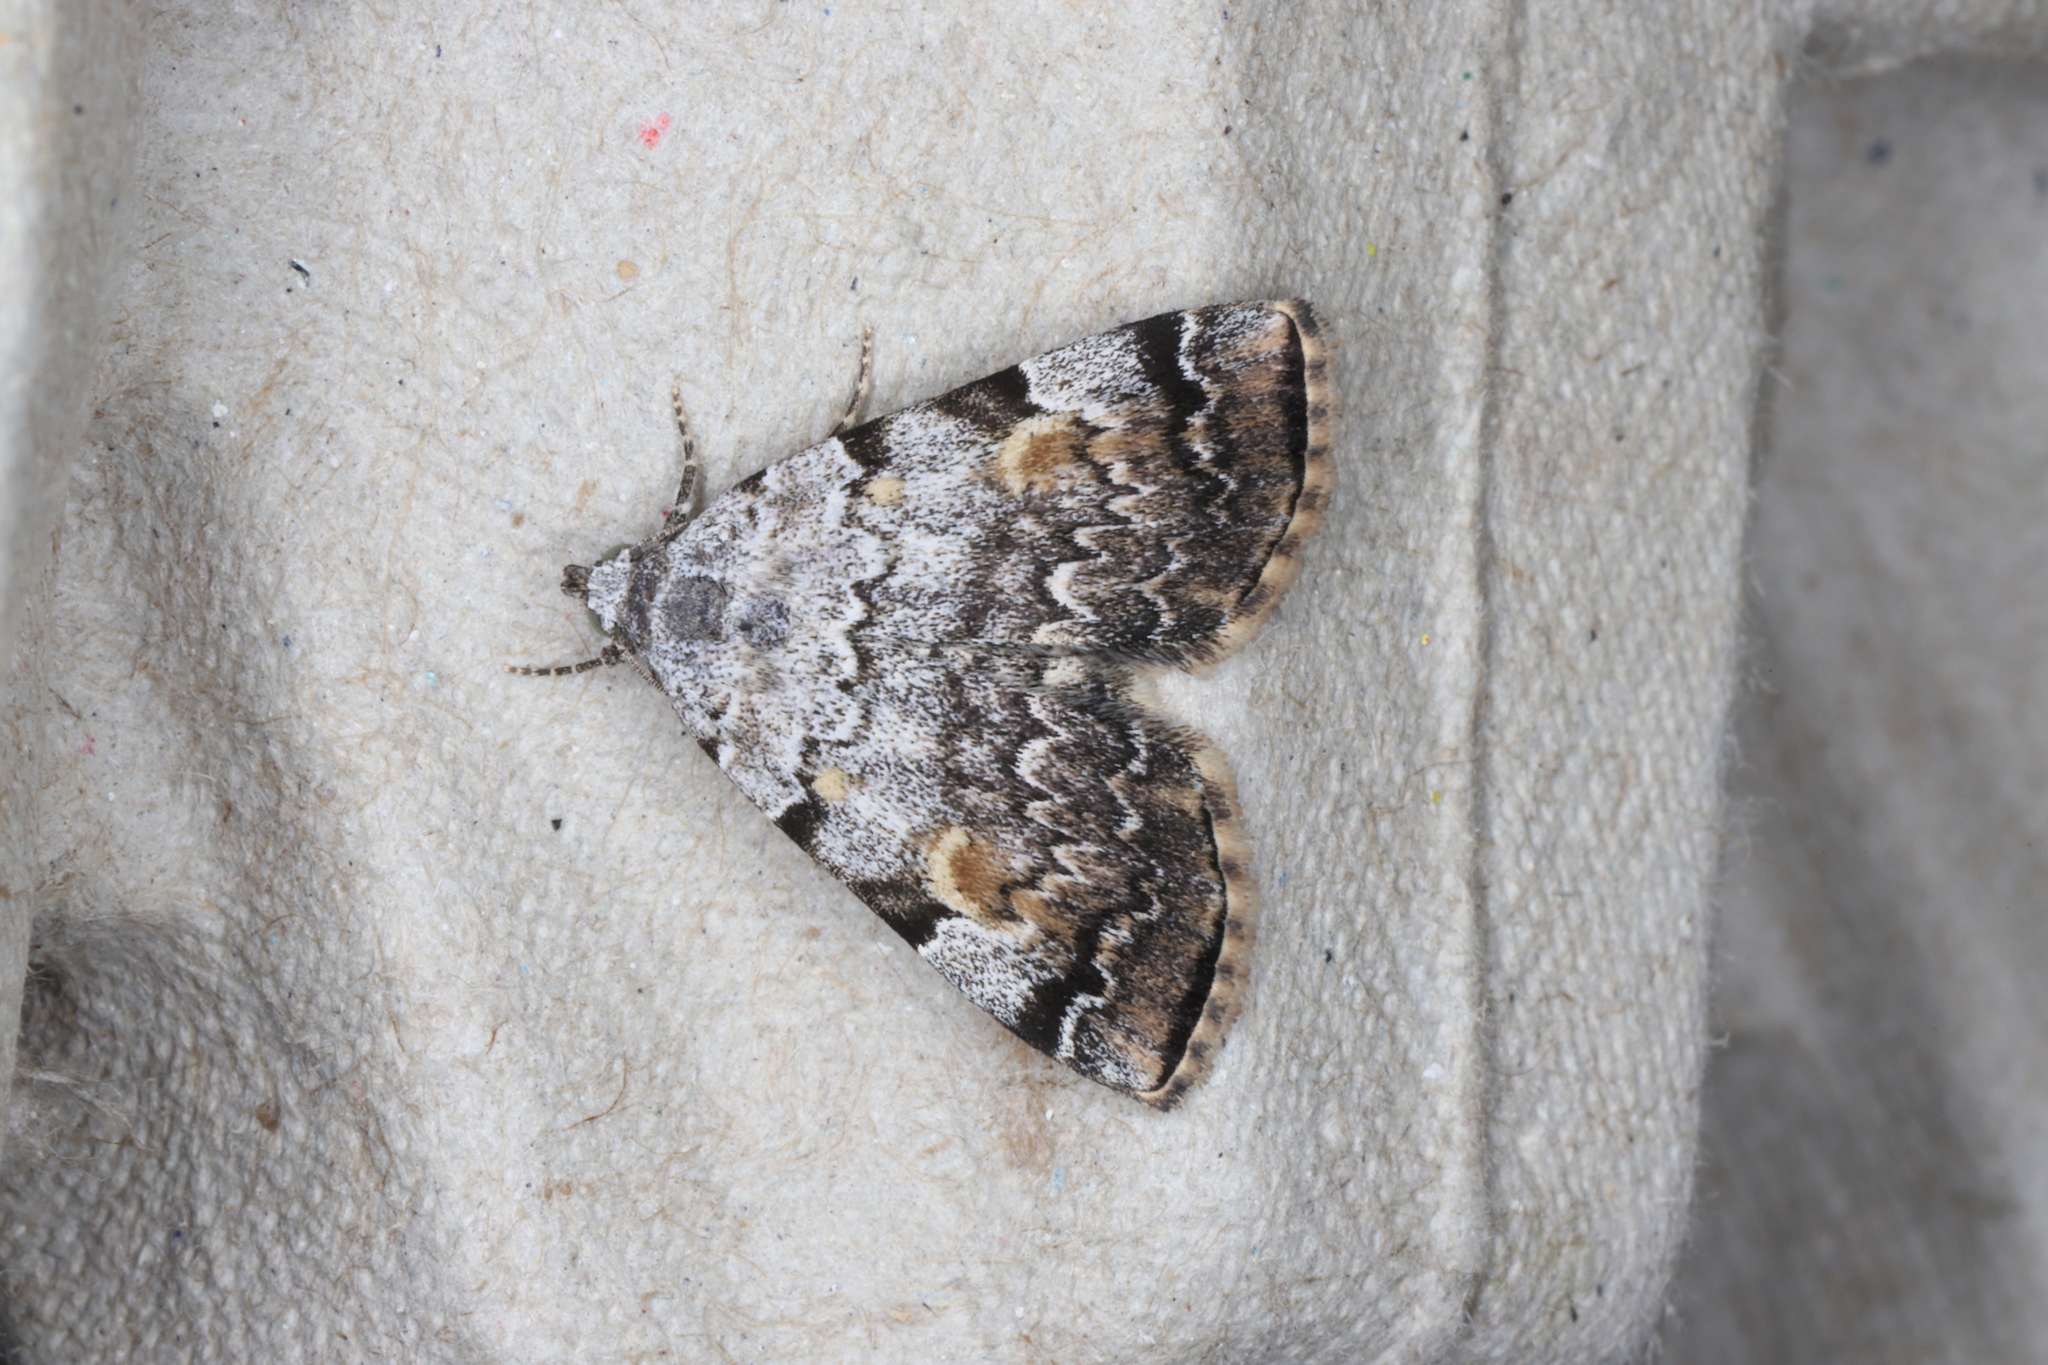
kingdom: Animalia
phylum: Arthropoda
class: Insecta
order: Lepidoptera
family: Erebidae
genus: Idia
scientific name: Idia americalis
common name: American idia moth
